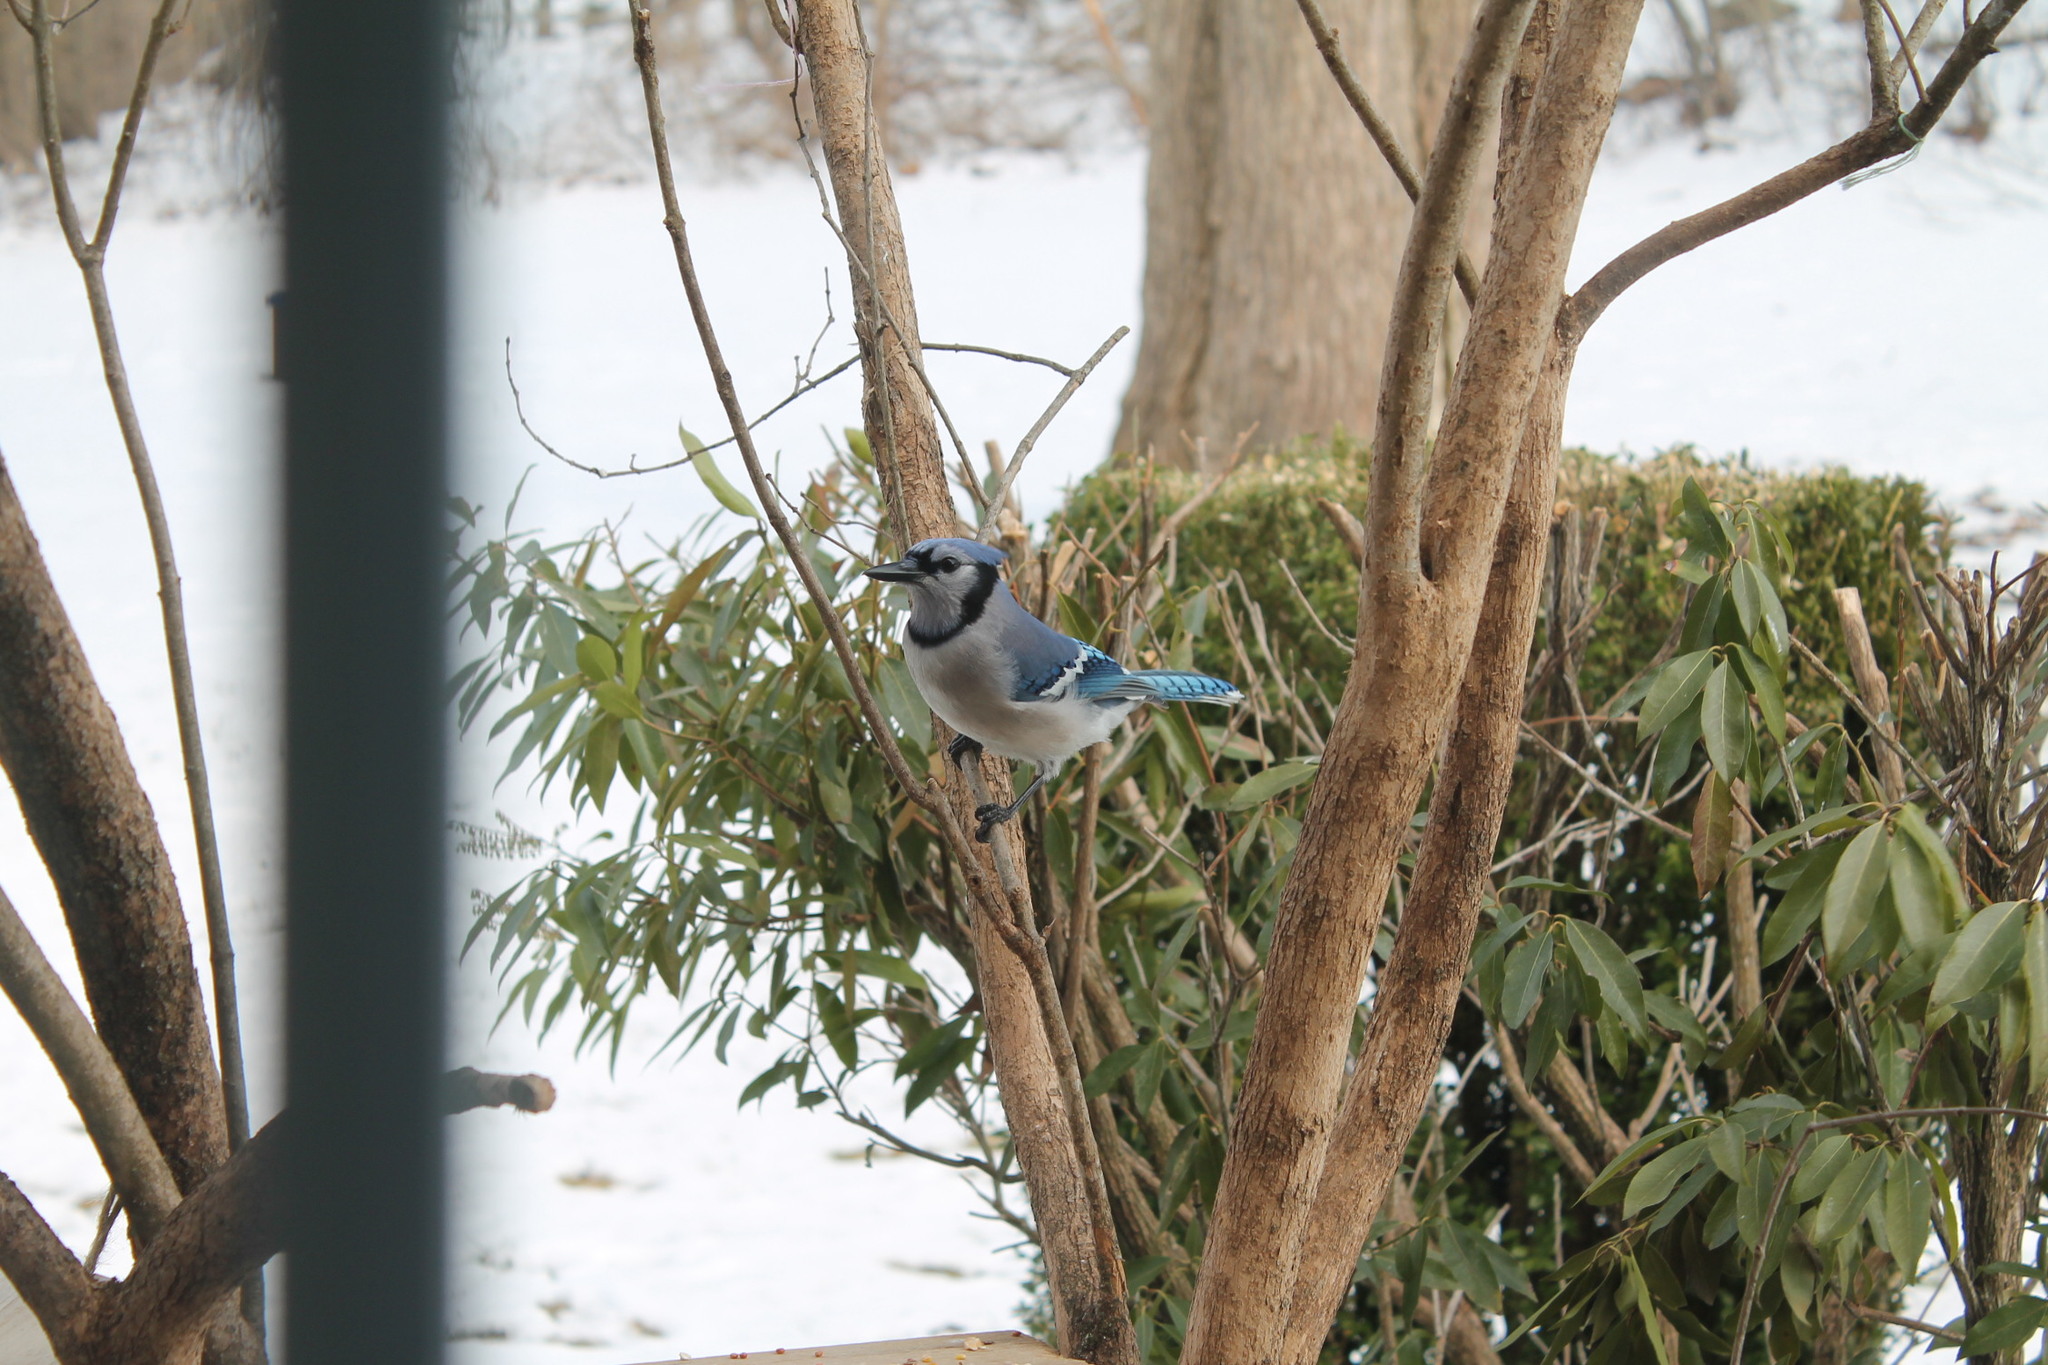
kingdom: Animalia
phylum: Chordata
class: Aves
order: Passeriformes
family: Corvidae
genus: Cyanocitta
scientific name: Cyanocitta cristata
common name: Blue jay
